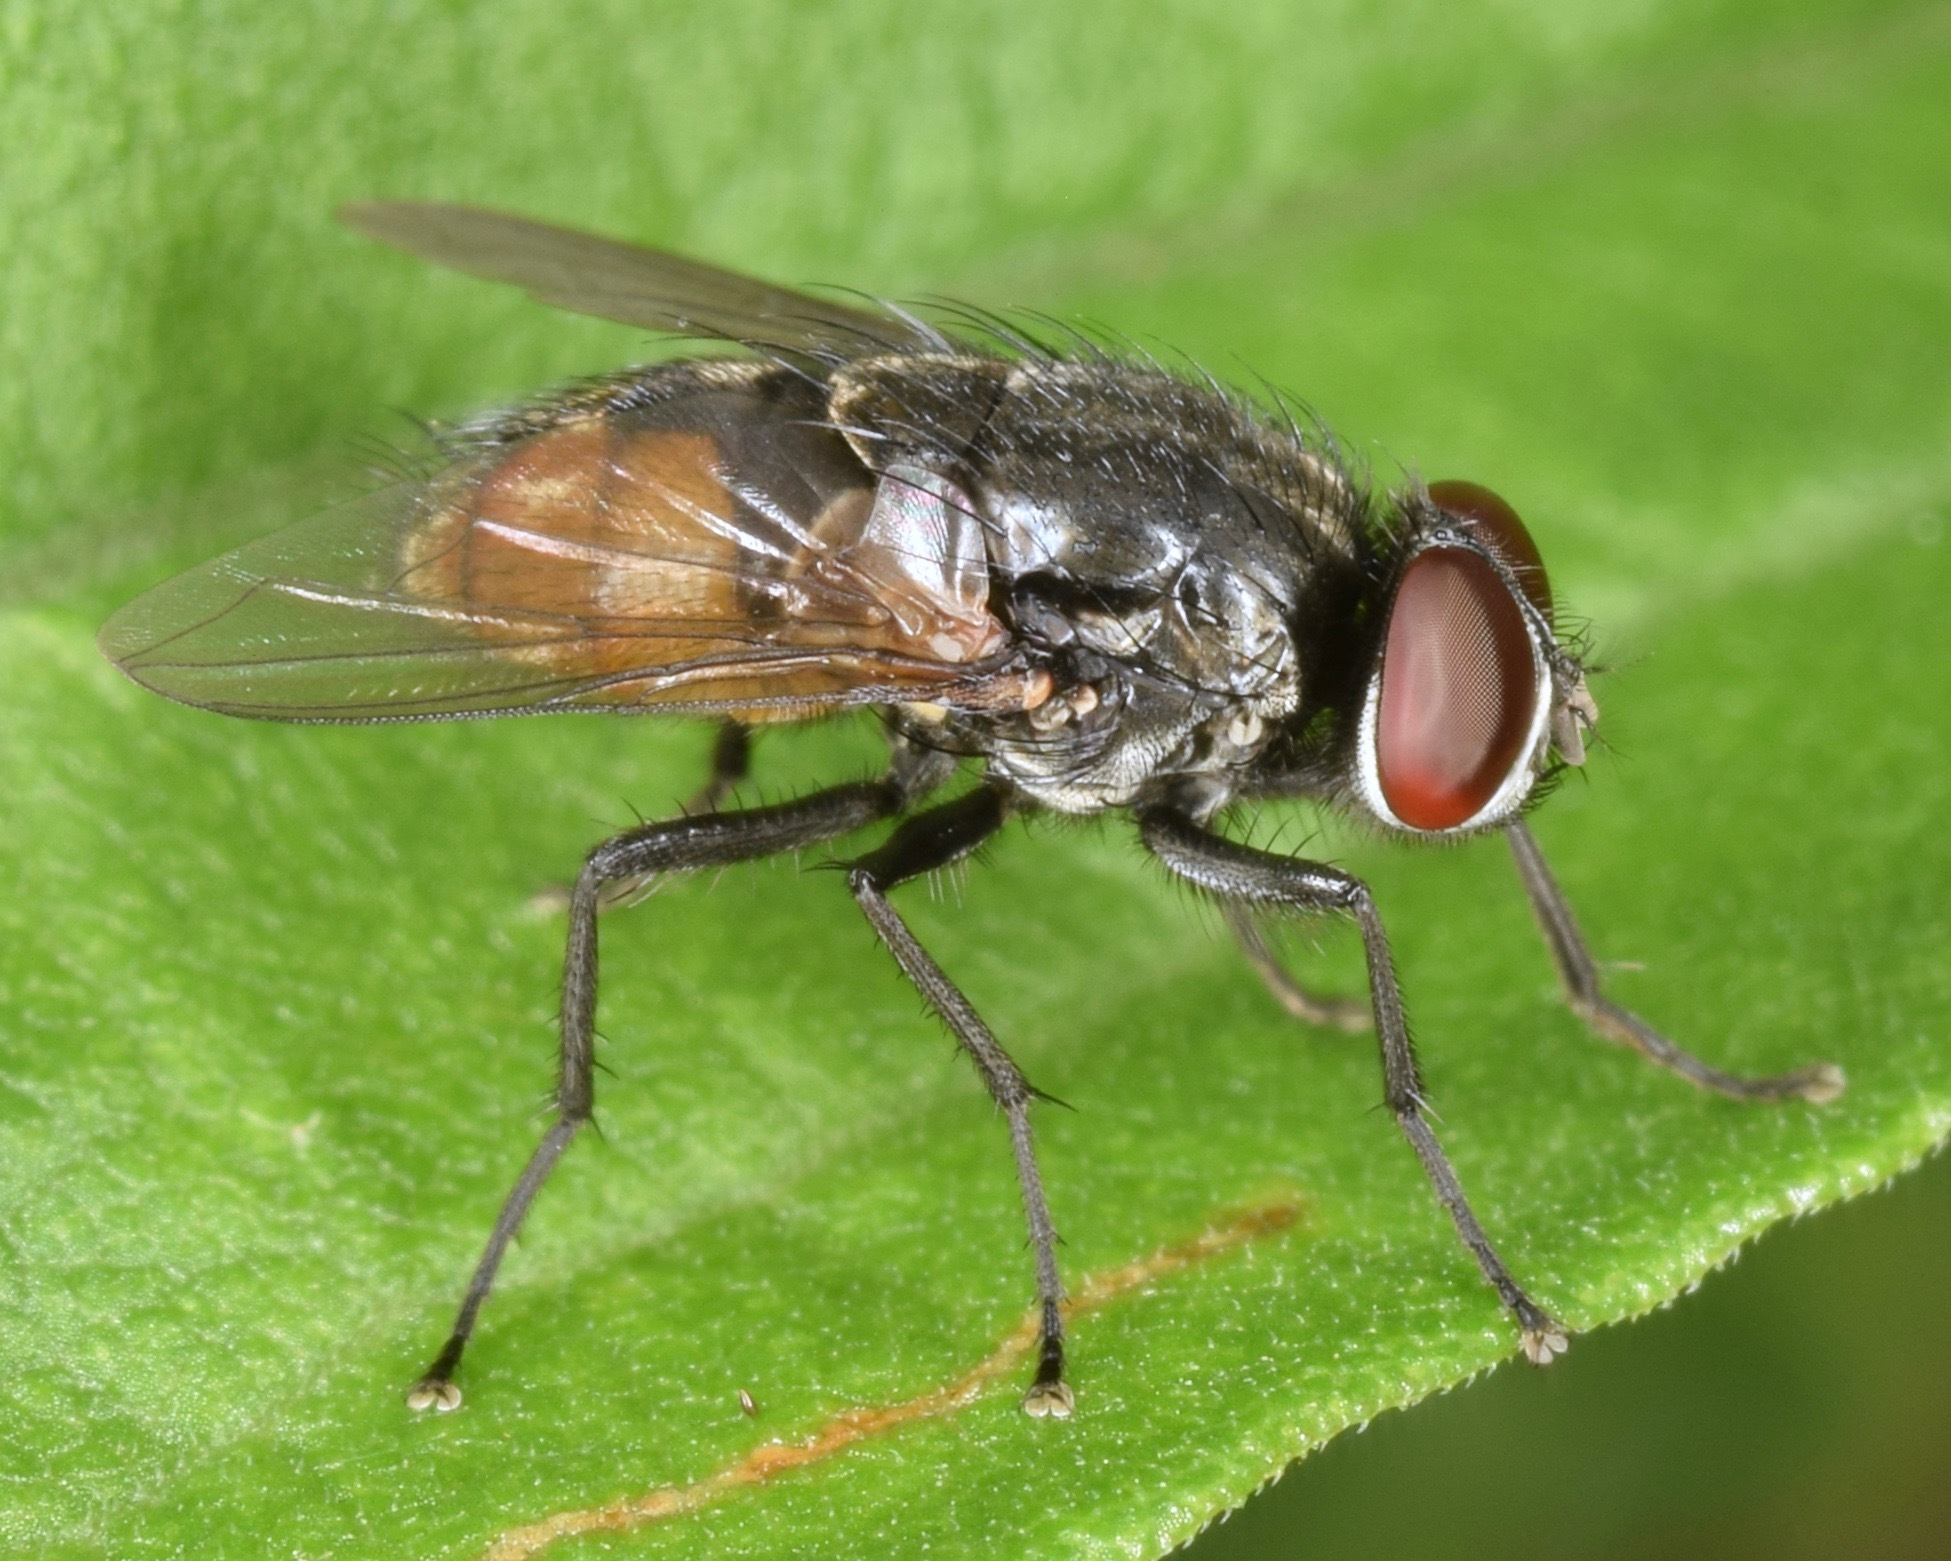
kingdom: Animalia
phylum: Arthropoda
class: Insecta
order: Diptera
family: Muscidae
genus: Musca
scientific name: Musca autumnalis
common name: Face fly
